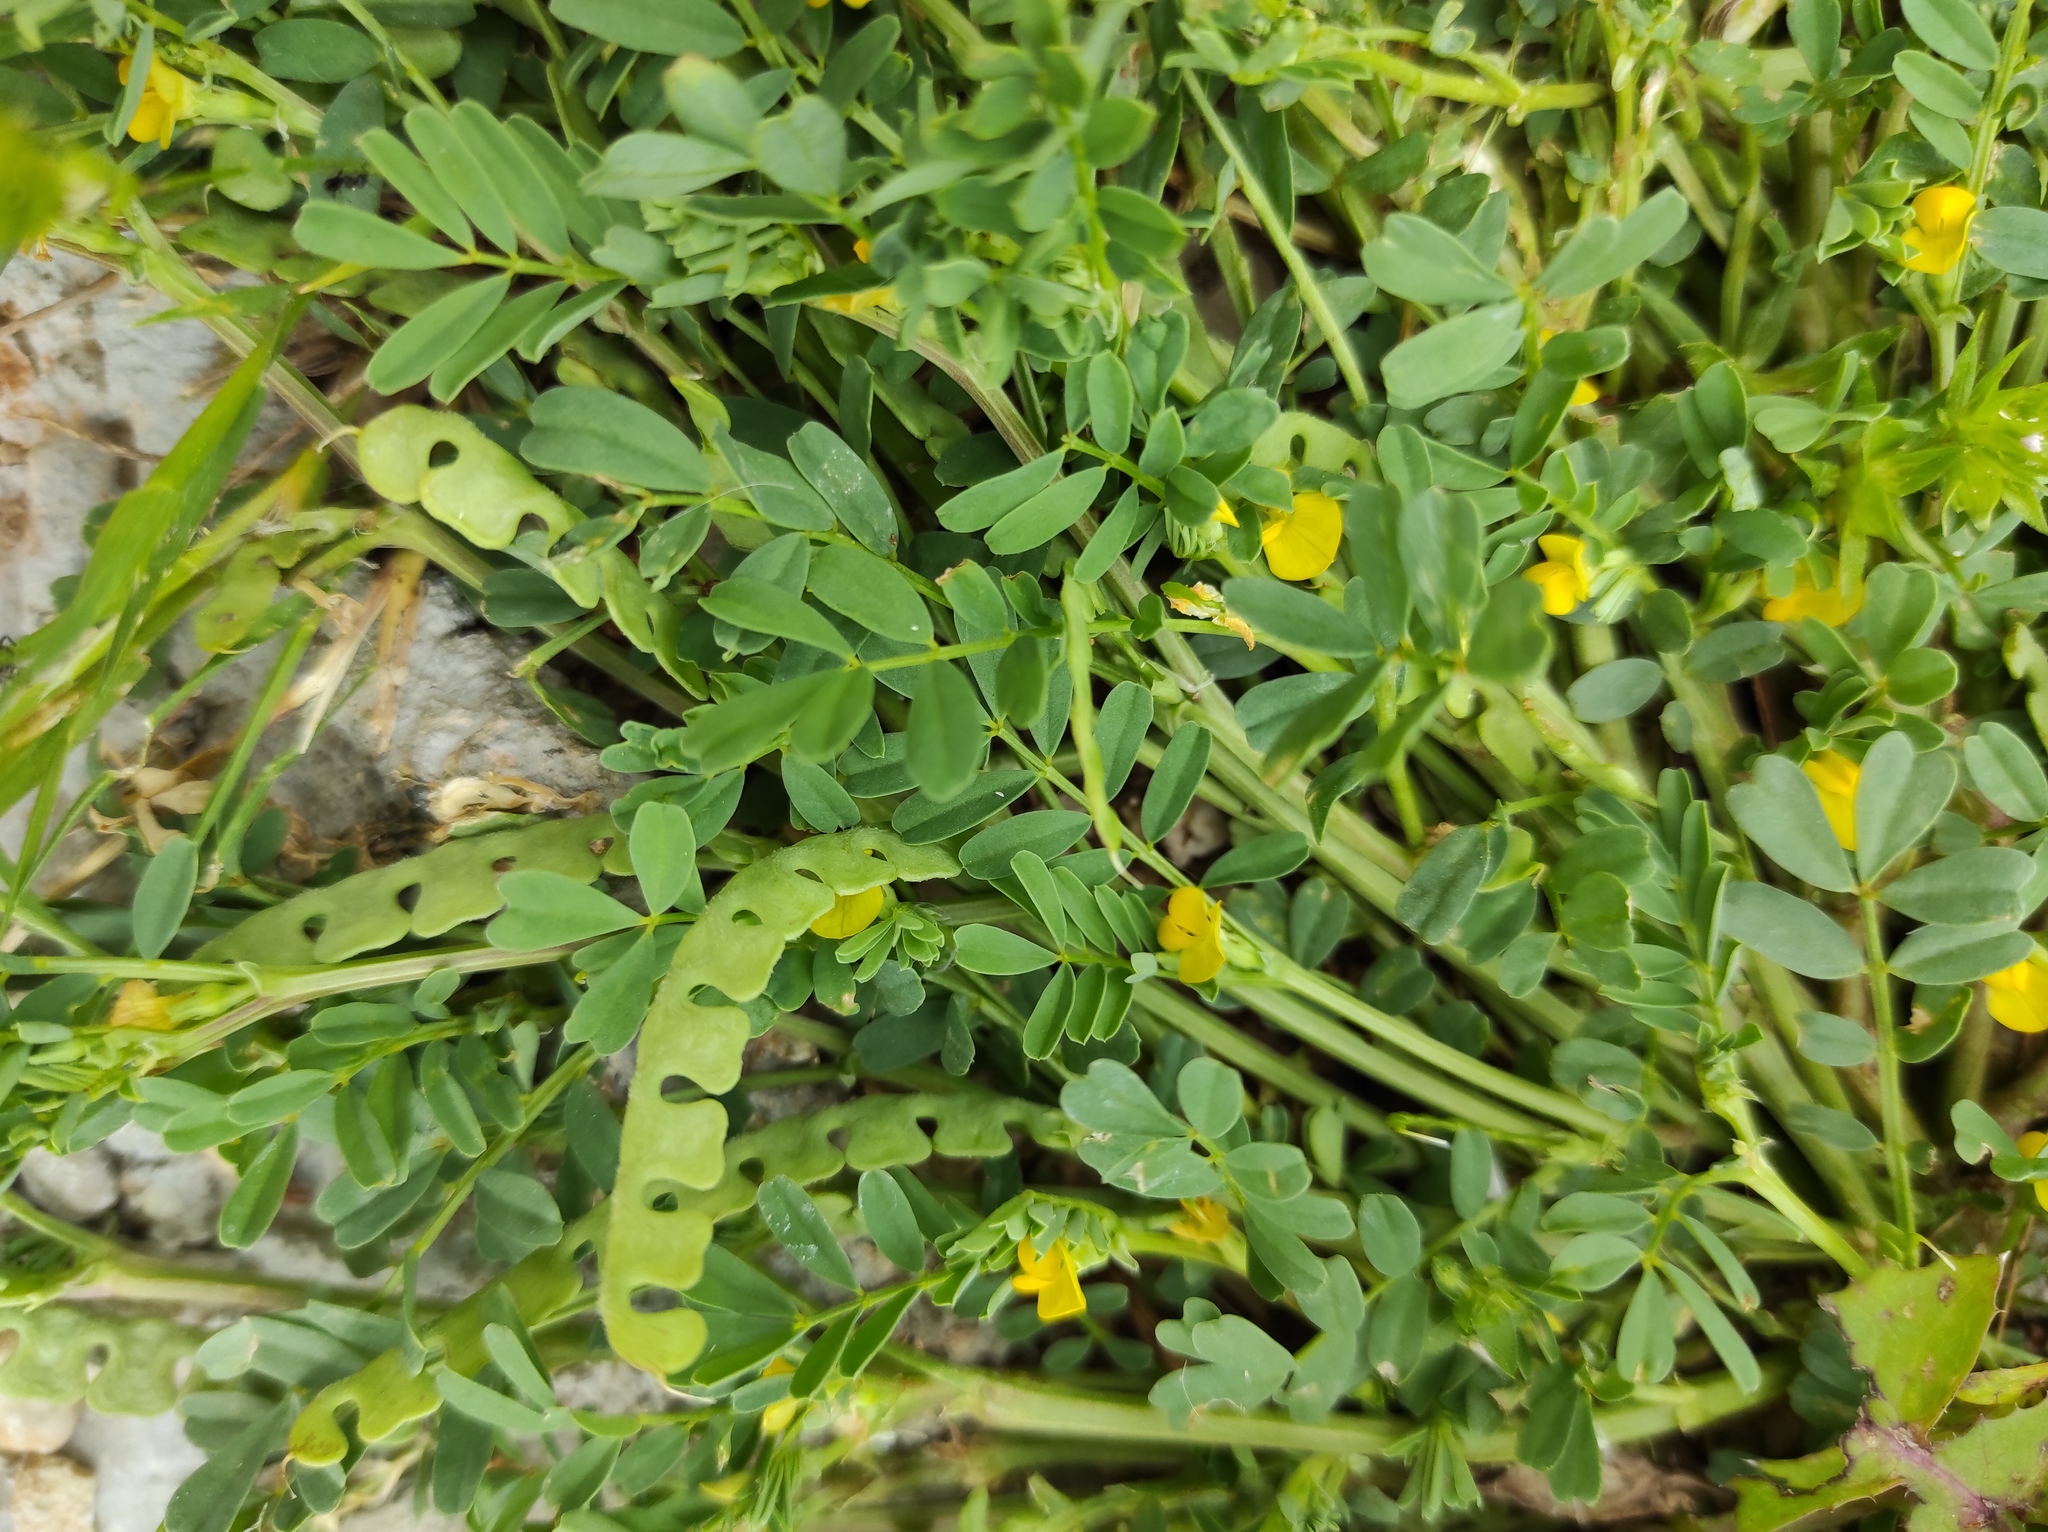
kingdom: Plantae
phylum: Tracheophyta
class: Magnoliopsida
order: Fabales
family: Fabaceae
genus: Hippocrepis
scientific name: Hippocrepis biflora
